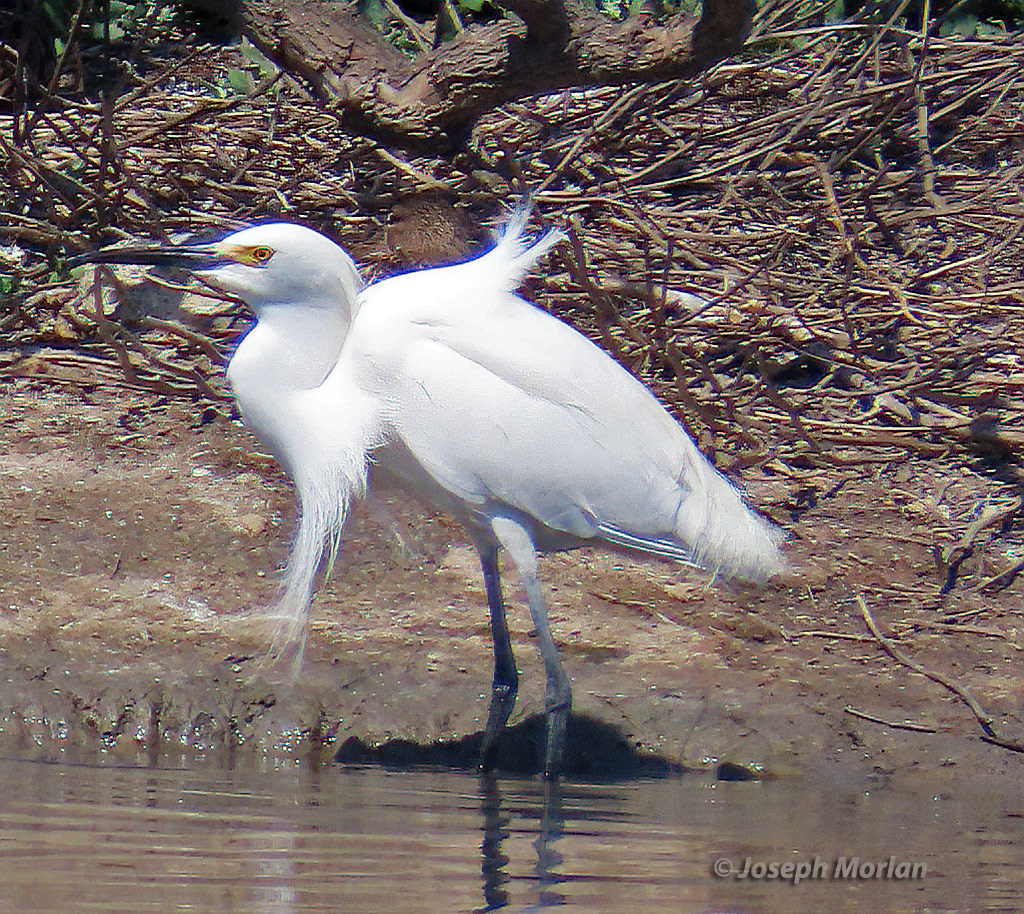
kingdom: Animalia
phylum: Chordata
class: Aves
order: Pelecaniformes
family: Ardeidae
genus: Egretta
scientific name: Egretta thula
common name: Snowy egret
